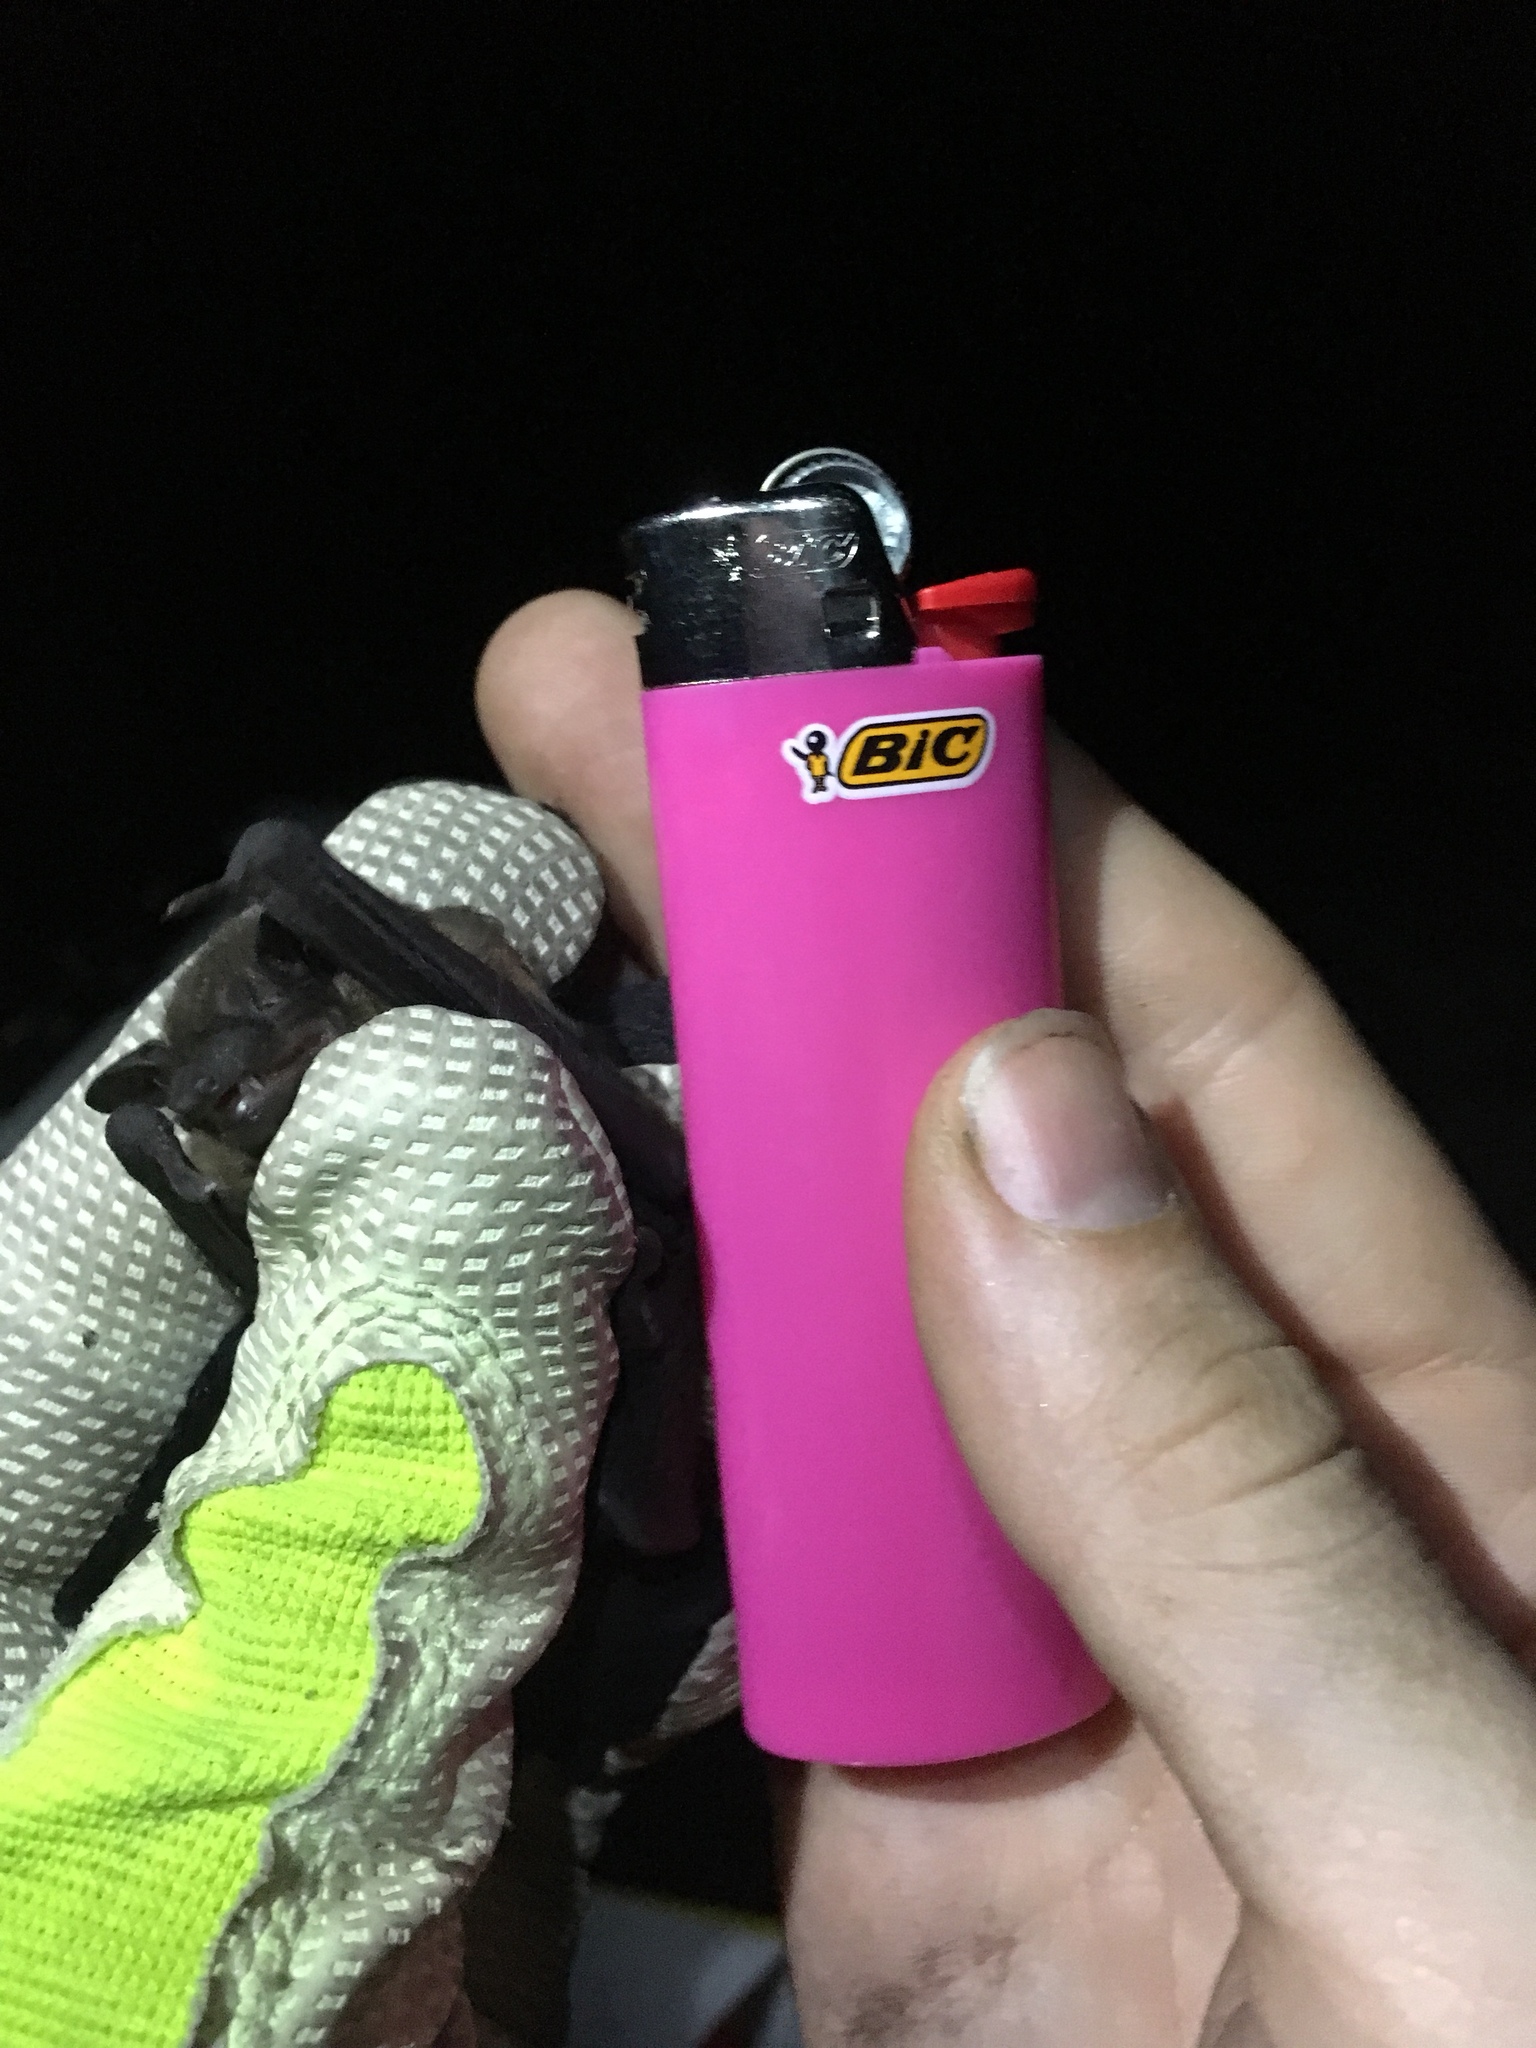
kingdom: Animalia
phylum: Chordata
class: Mammalia
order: Chiroptera
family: Vespertilionidae
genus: Nycticeius
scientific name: Nycticeius humeralis
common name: Evening bat
